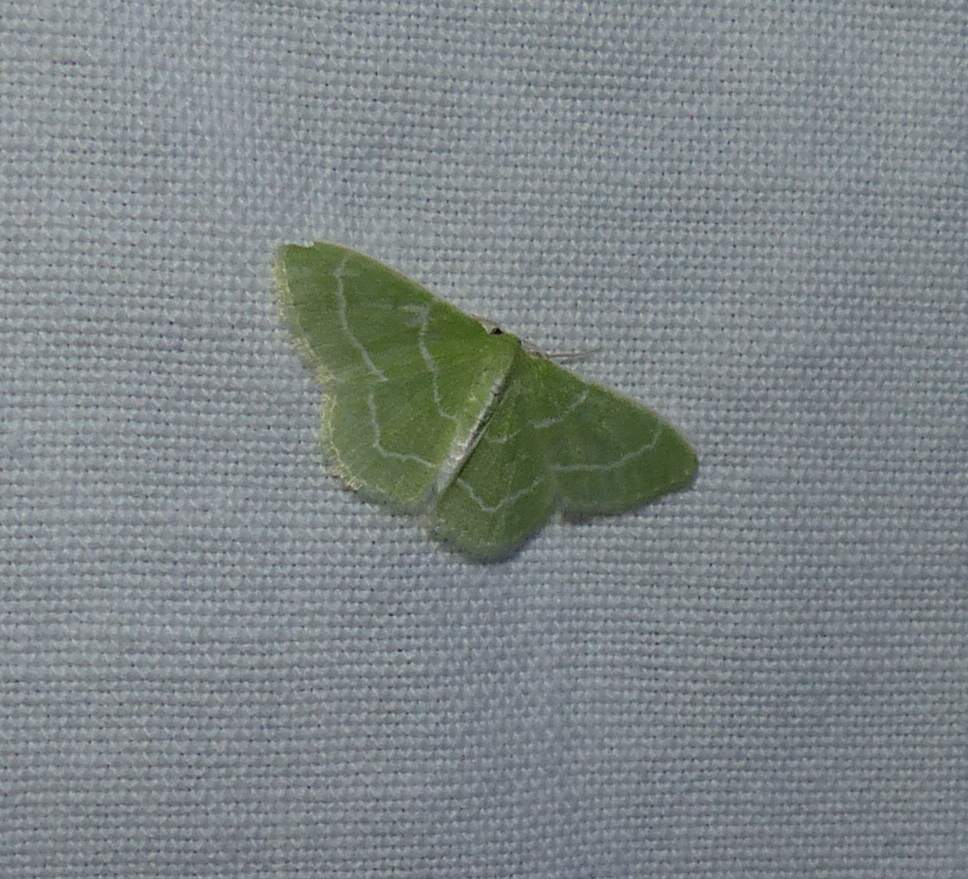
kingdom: Animalia
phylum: Arthropoda
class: Insecta
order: Lepidoptera
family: Geometridae
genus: Synchlora
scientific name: Synchlora aerata
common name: Wavy-lined emerald
